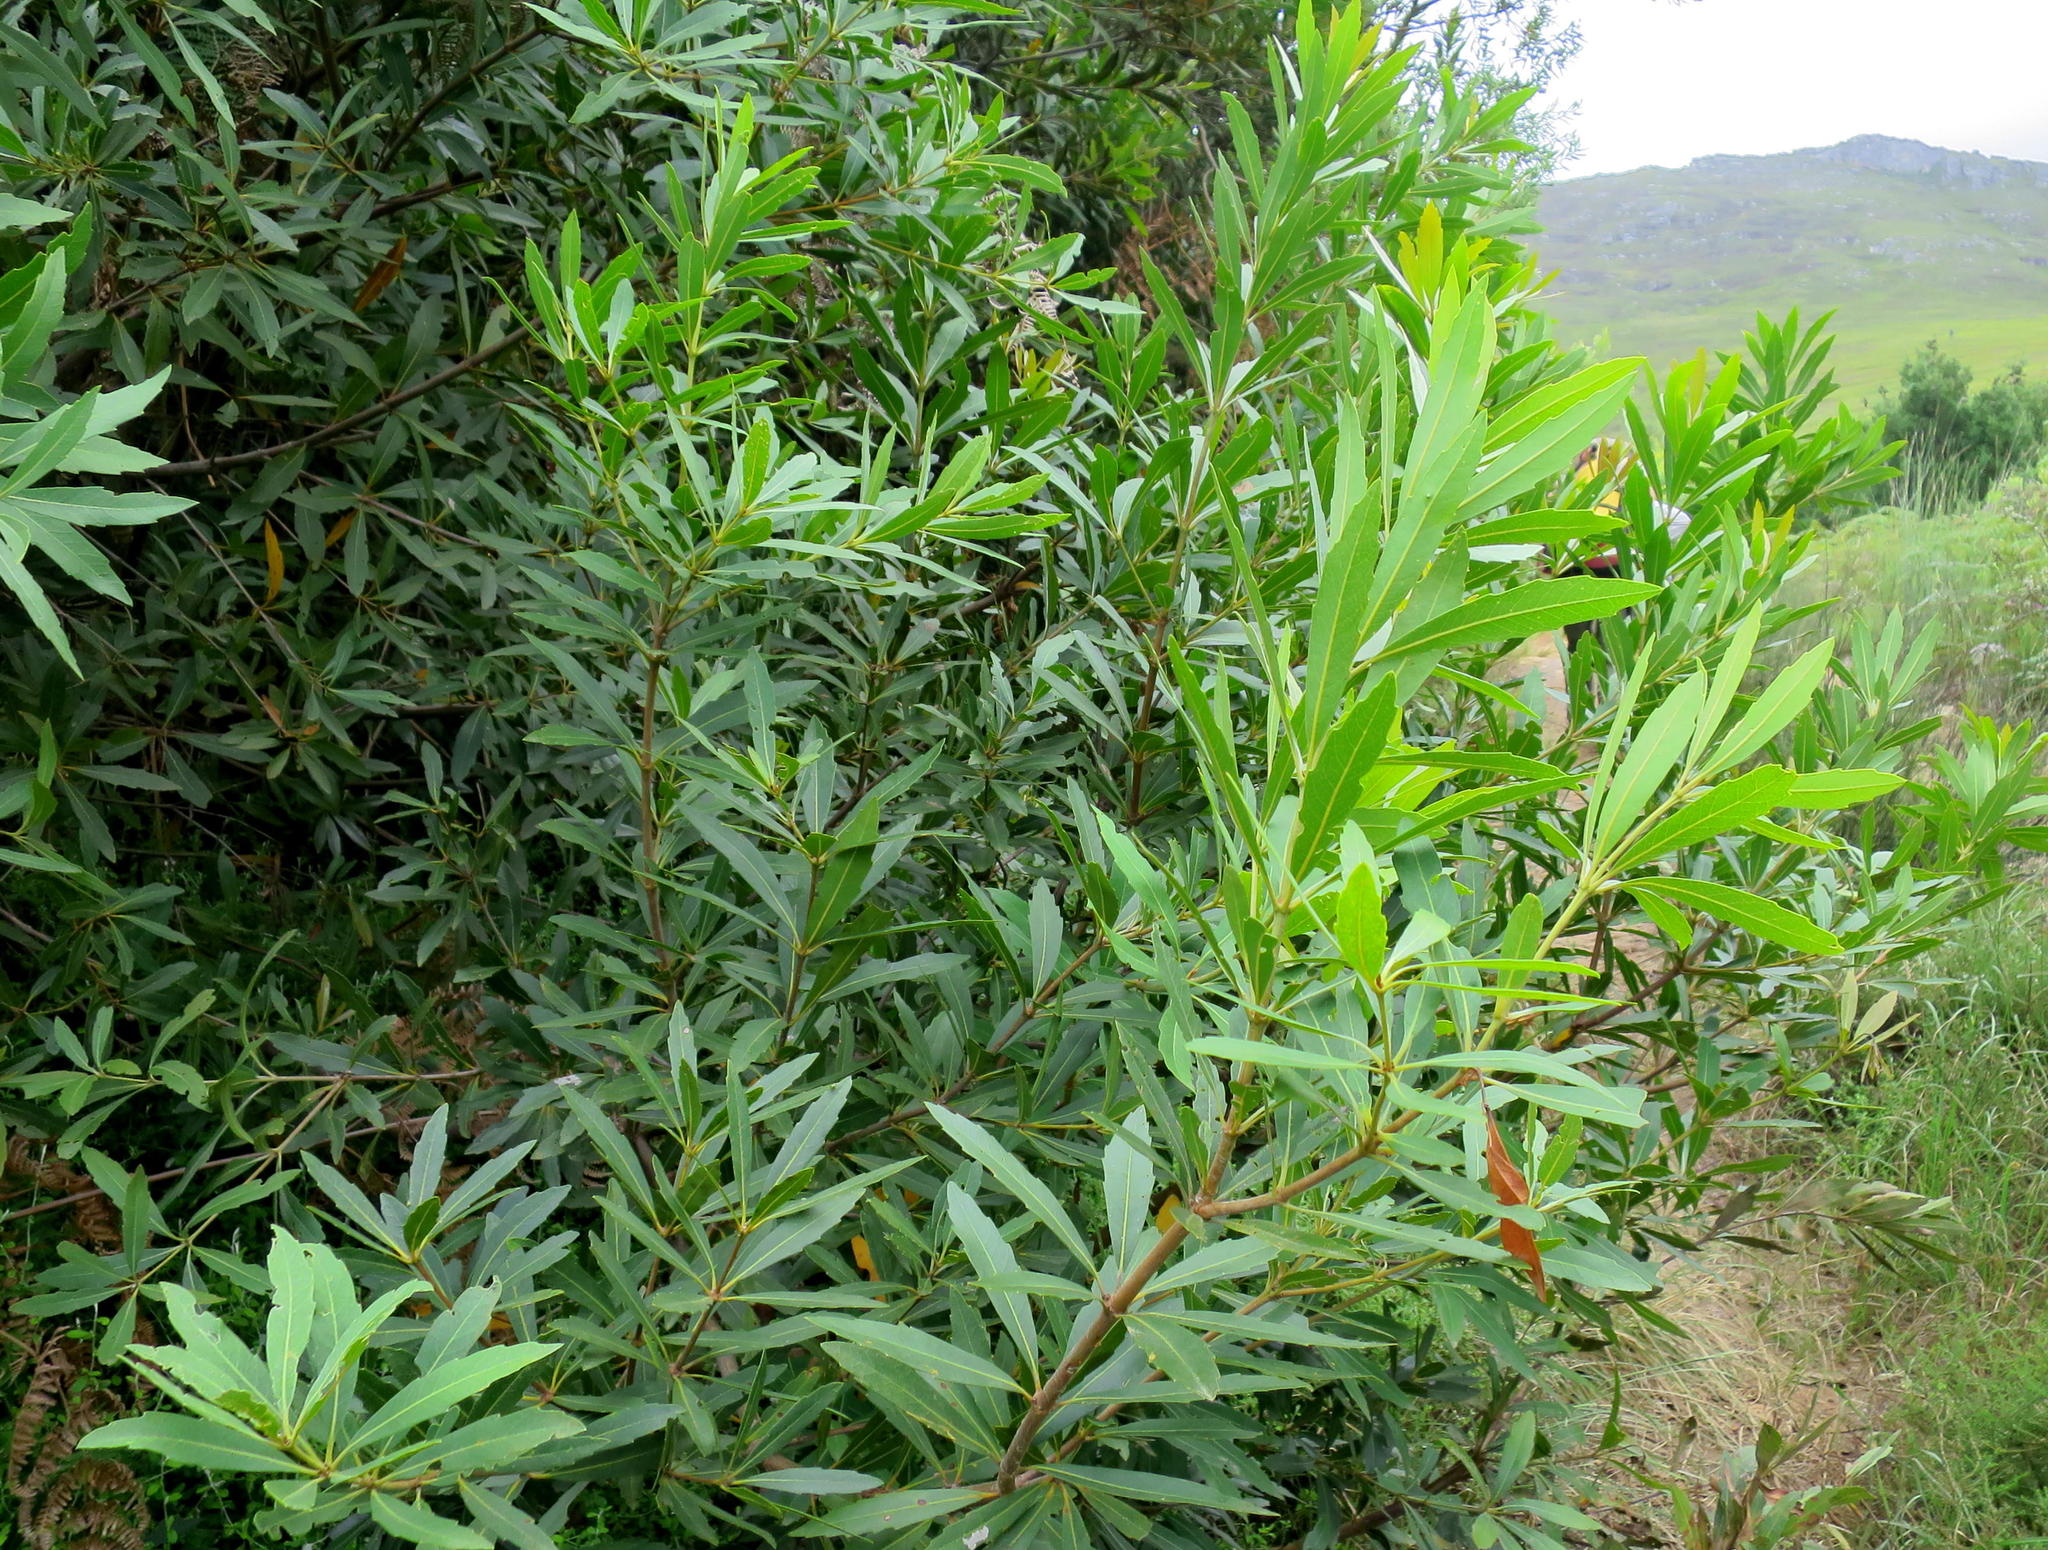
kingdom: Plantae
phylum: Tracheophyta
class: Magnoliopsida
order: Proteales
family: Proteaceae
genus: Brabejum
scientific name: Brabejum stellatifolium
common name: Wild almond
